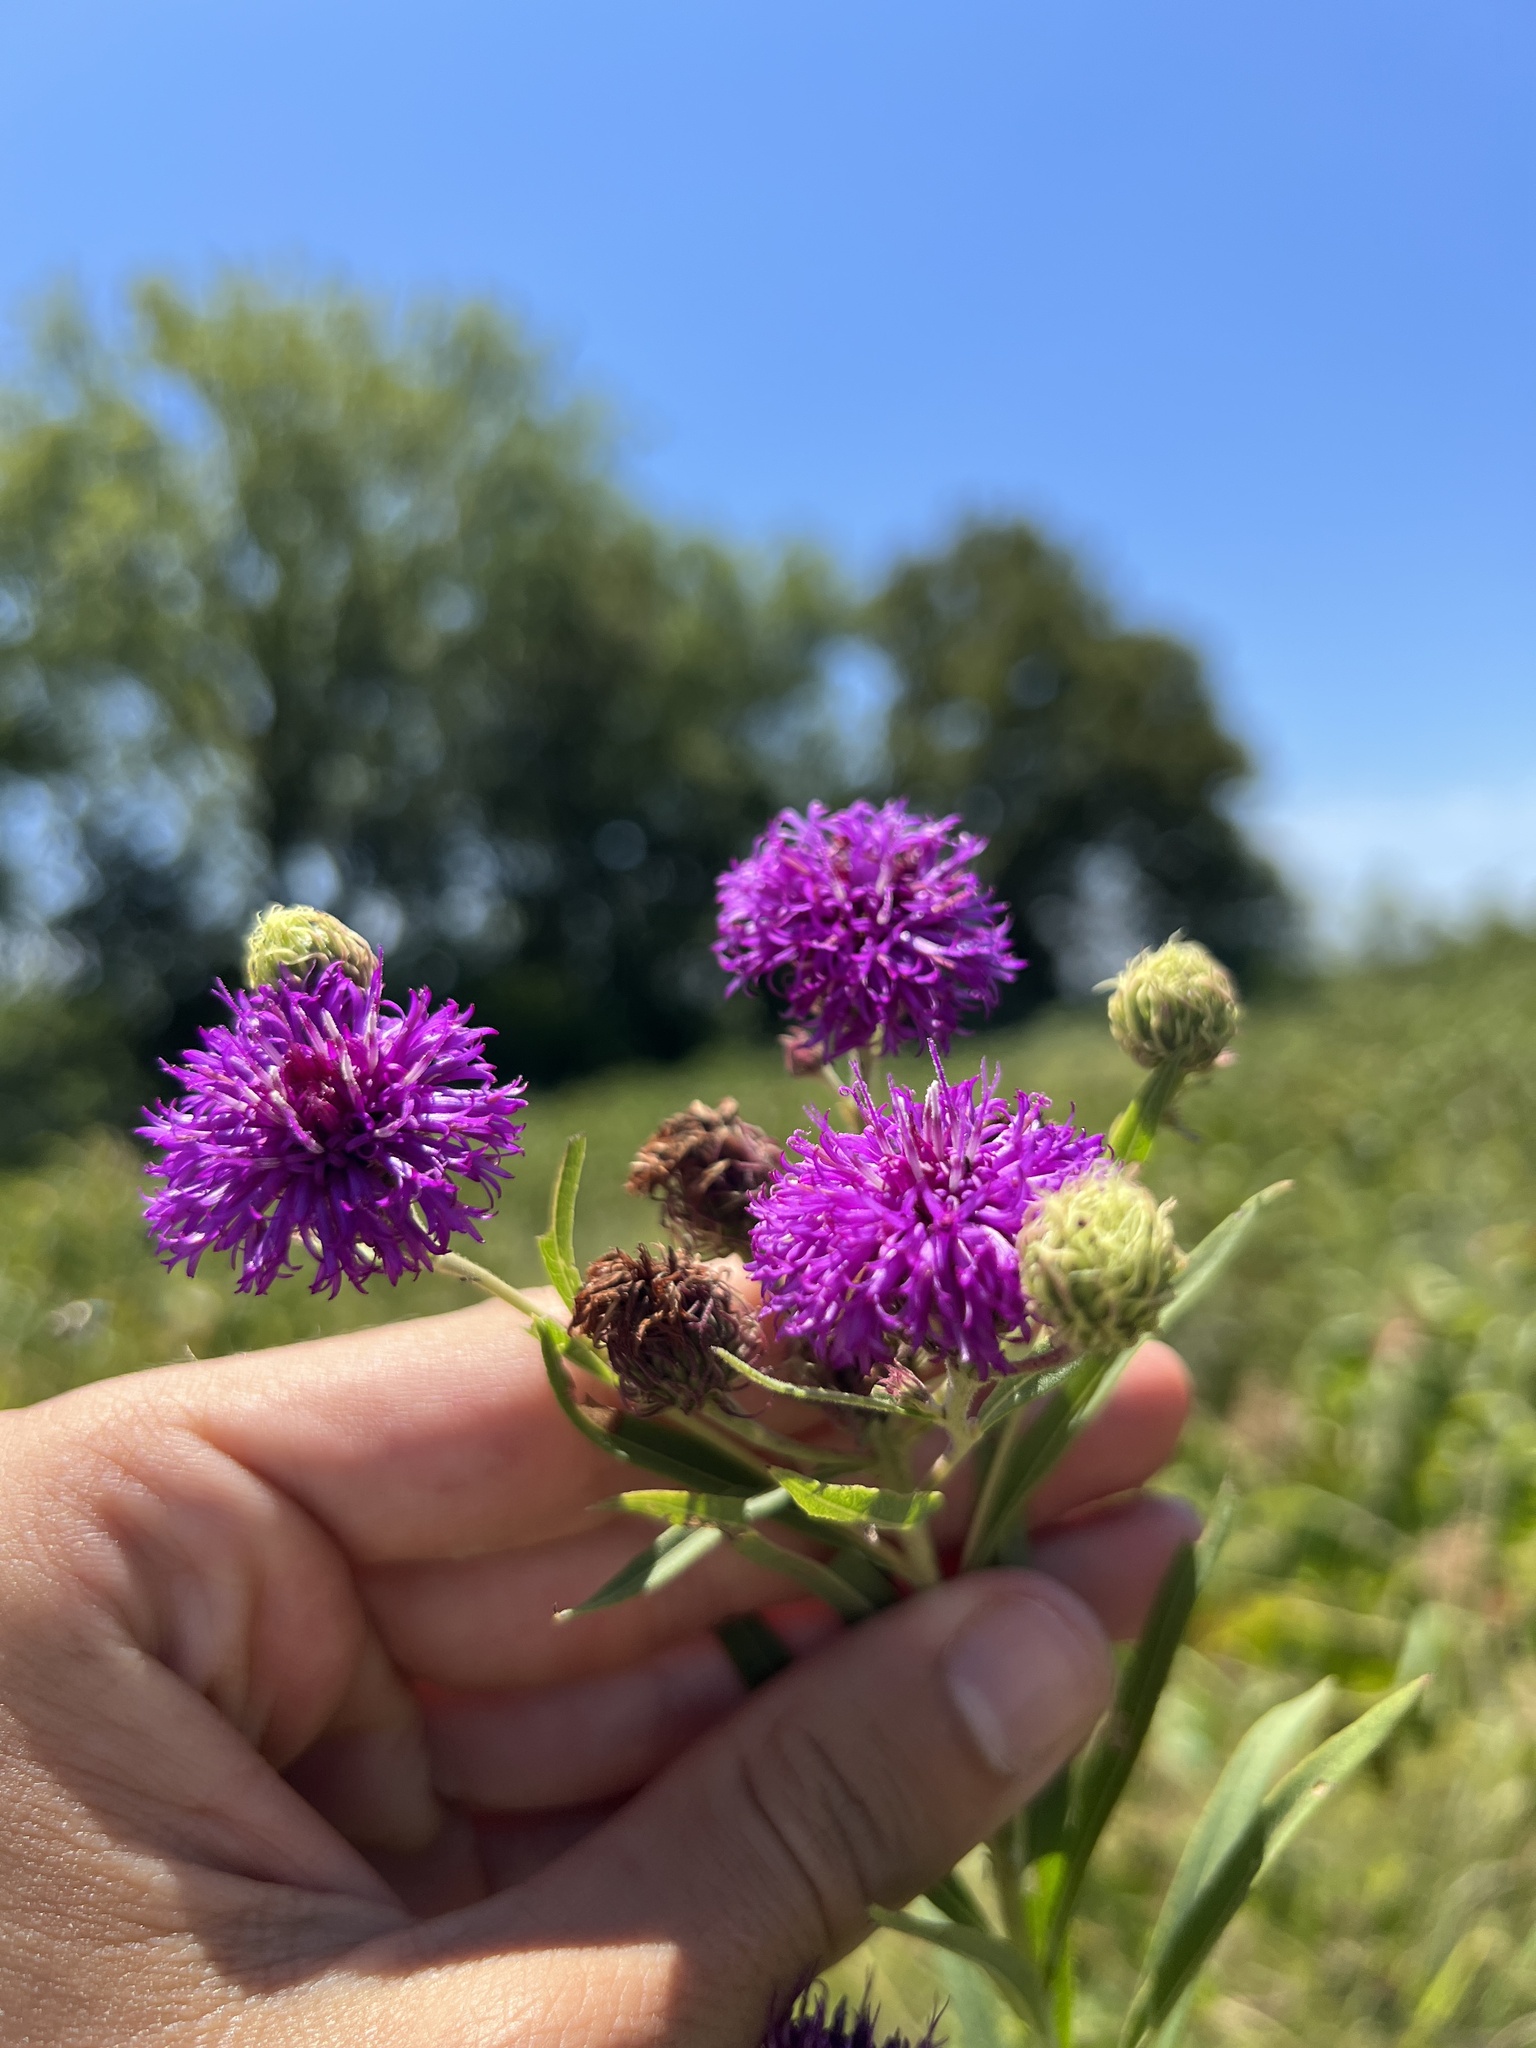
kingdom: Plantae
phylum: Tracheophyta
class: Magnoliopsida
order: Asterales
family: Asteraceae
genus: Vernonia
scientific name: Vernonia arkansana
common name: Ozark ironweed
